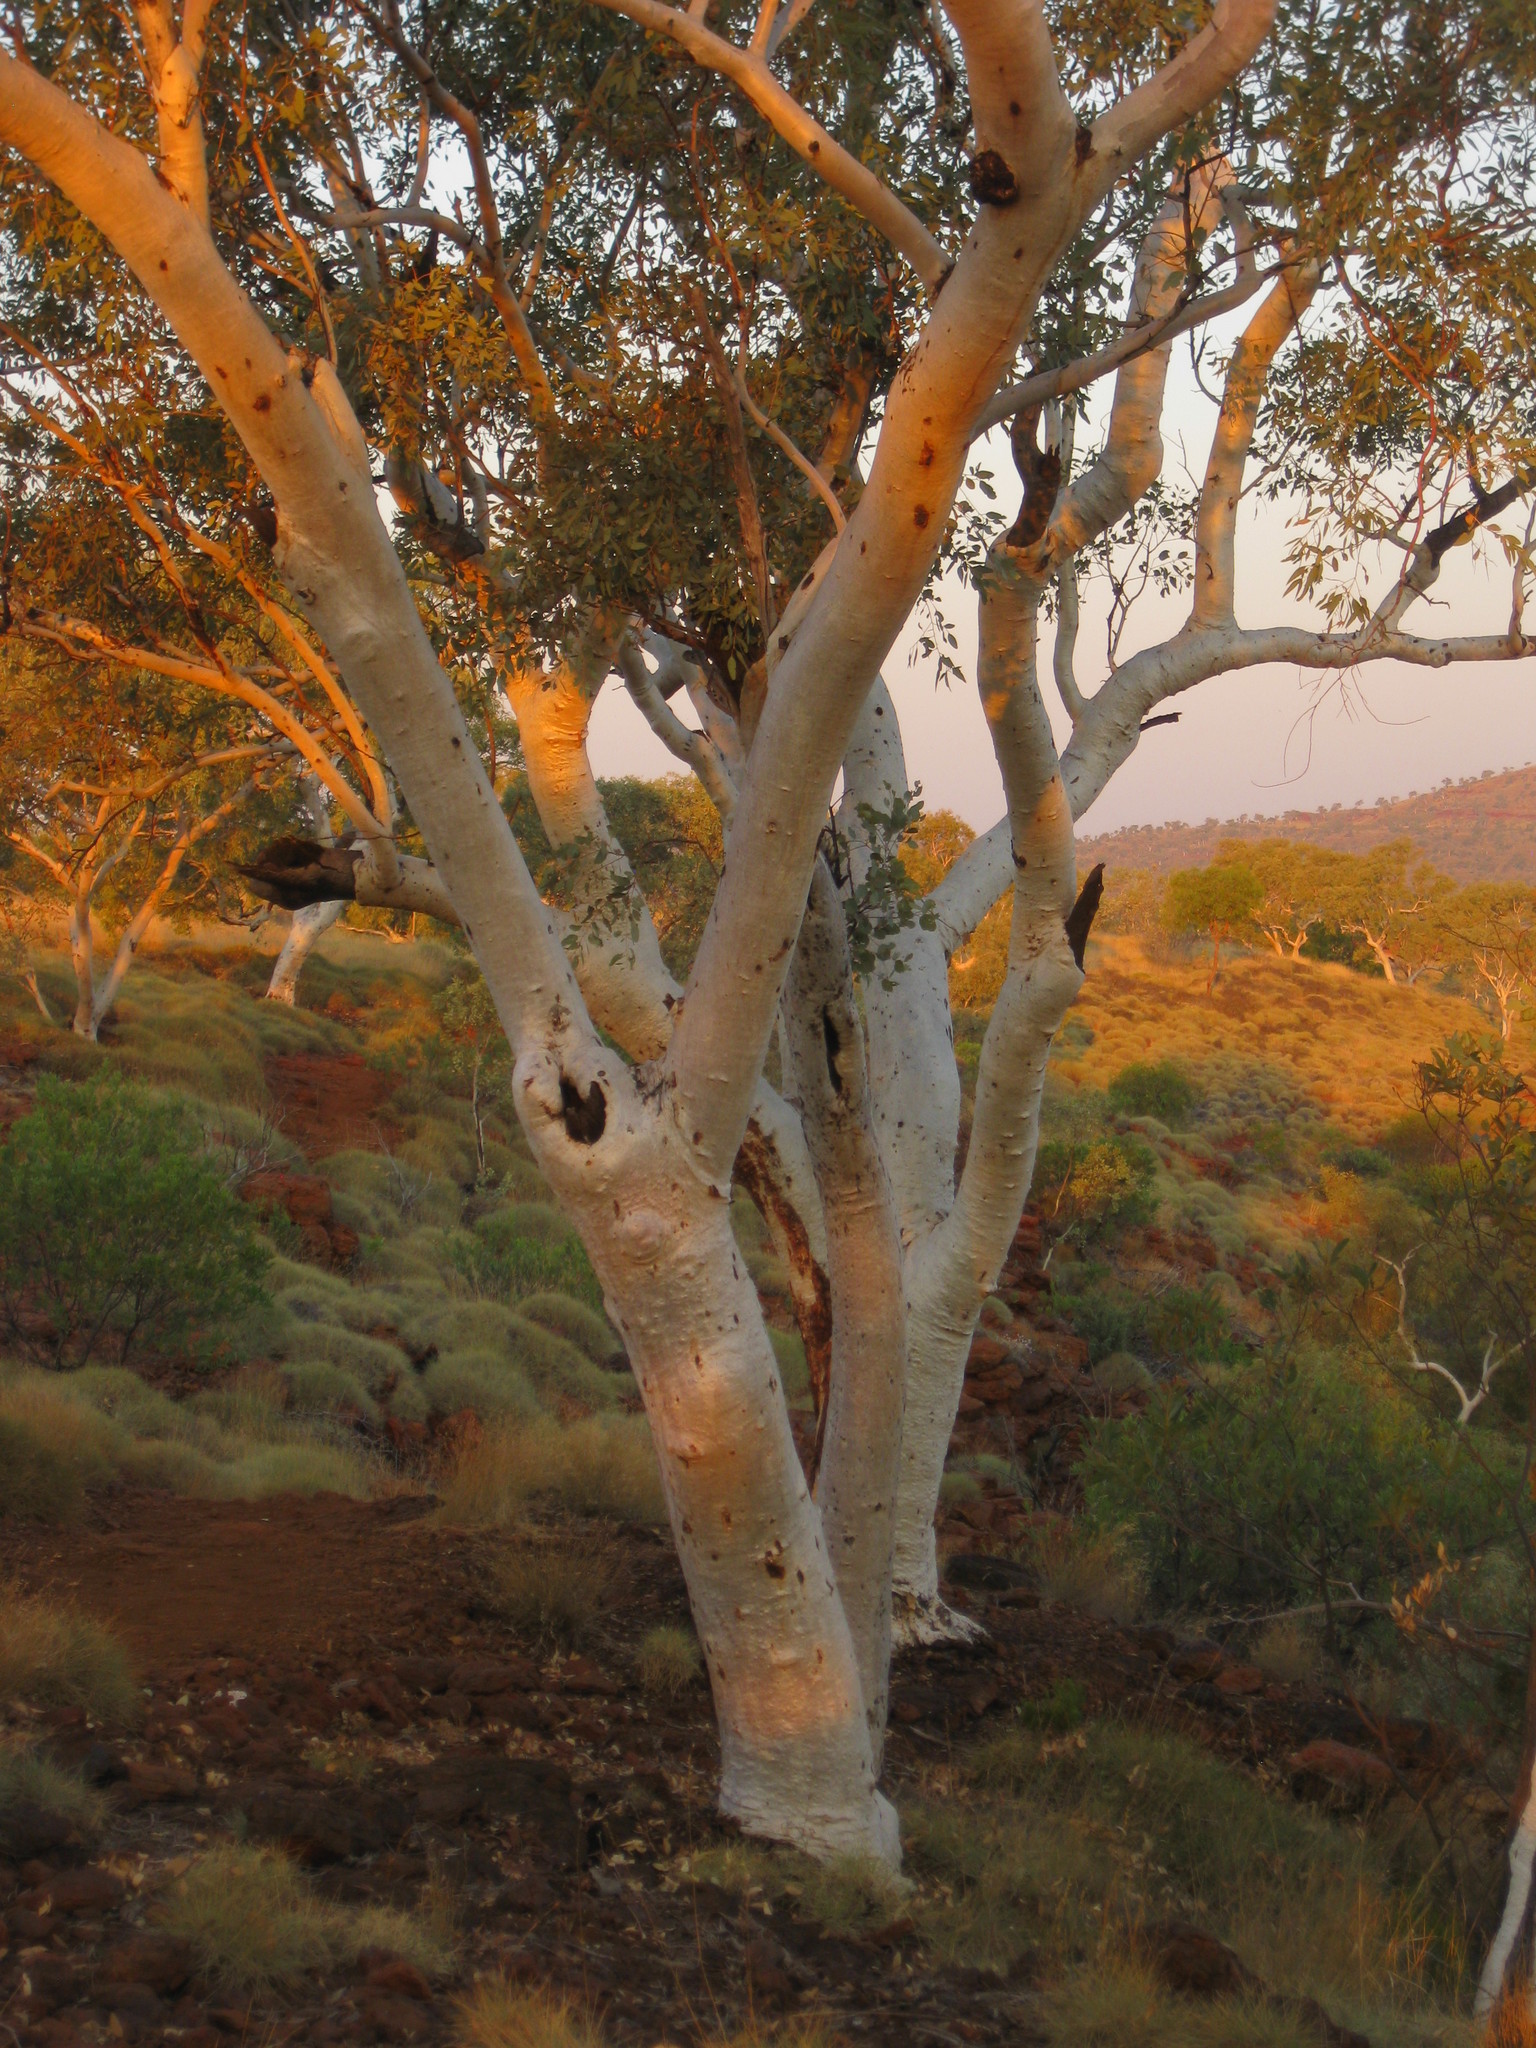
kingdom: Plantae
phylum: Tracheophyta
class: Magnoliopsida
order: Myrtales
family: Myrtaceae
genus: Eucalyptus
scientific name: Eucalyptus leucophloia
